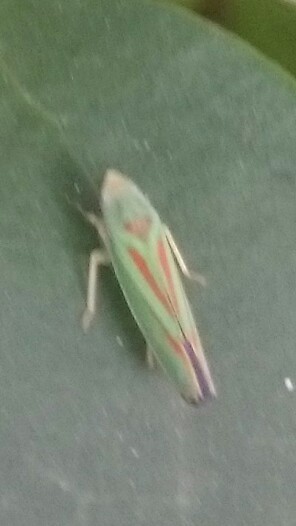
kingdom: Animalia
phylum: Arthropoda
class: Insecta
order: Hemiptera
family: Cicadellidae
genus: Graphocephala
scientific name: Graphocephala fennahi
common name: Rhododendron leafhopper
